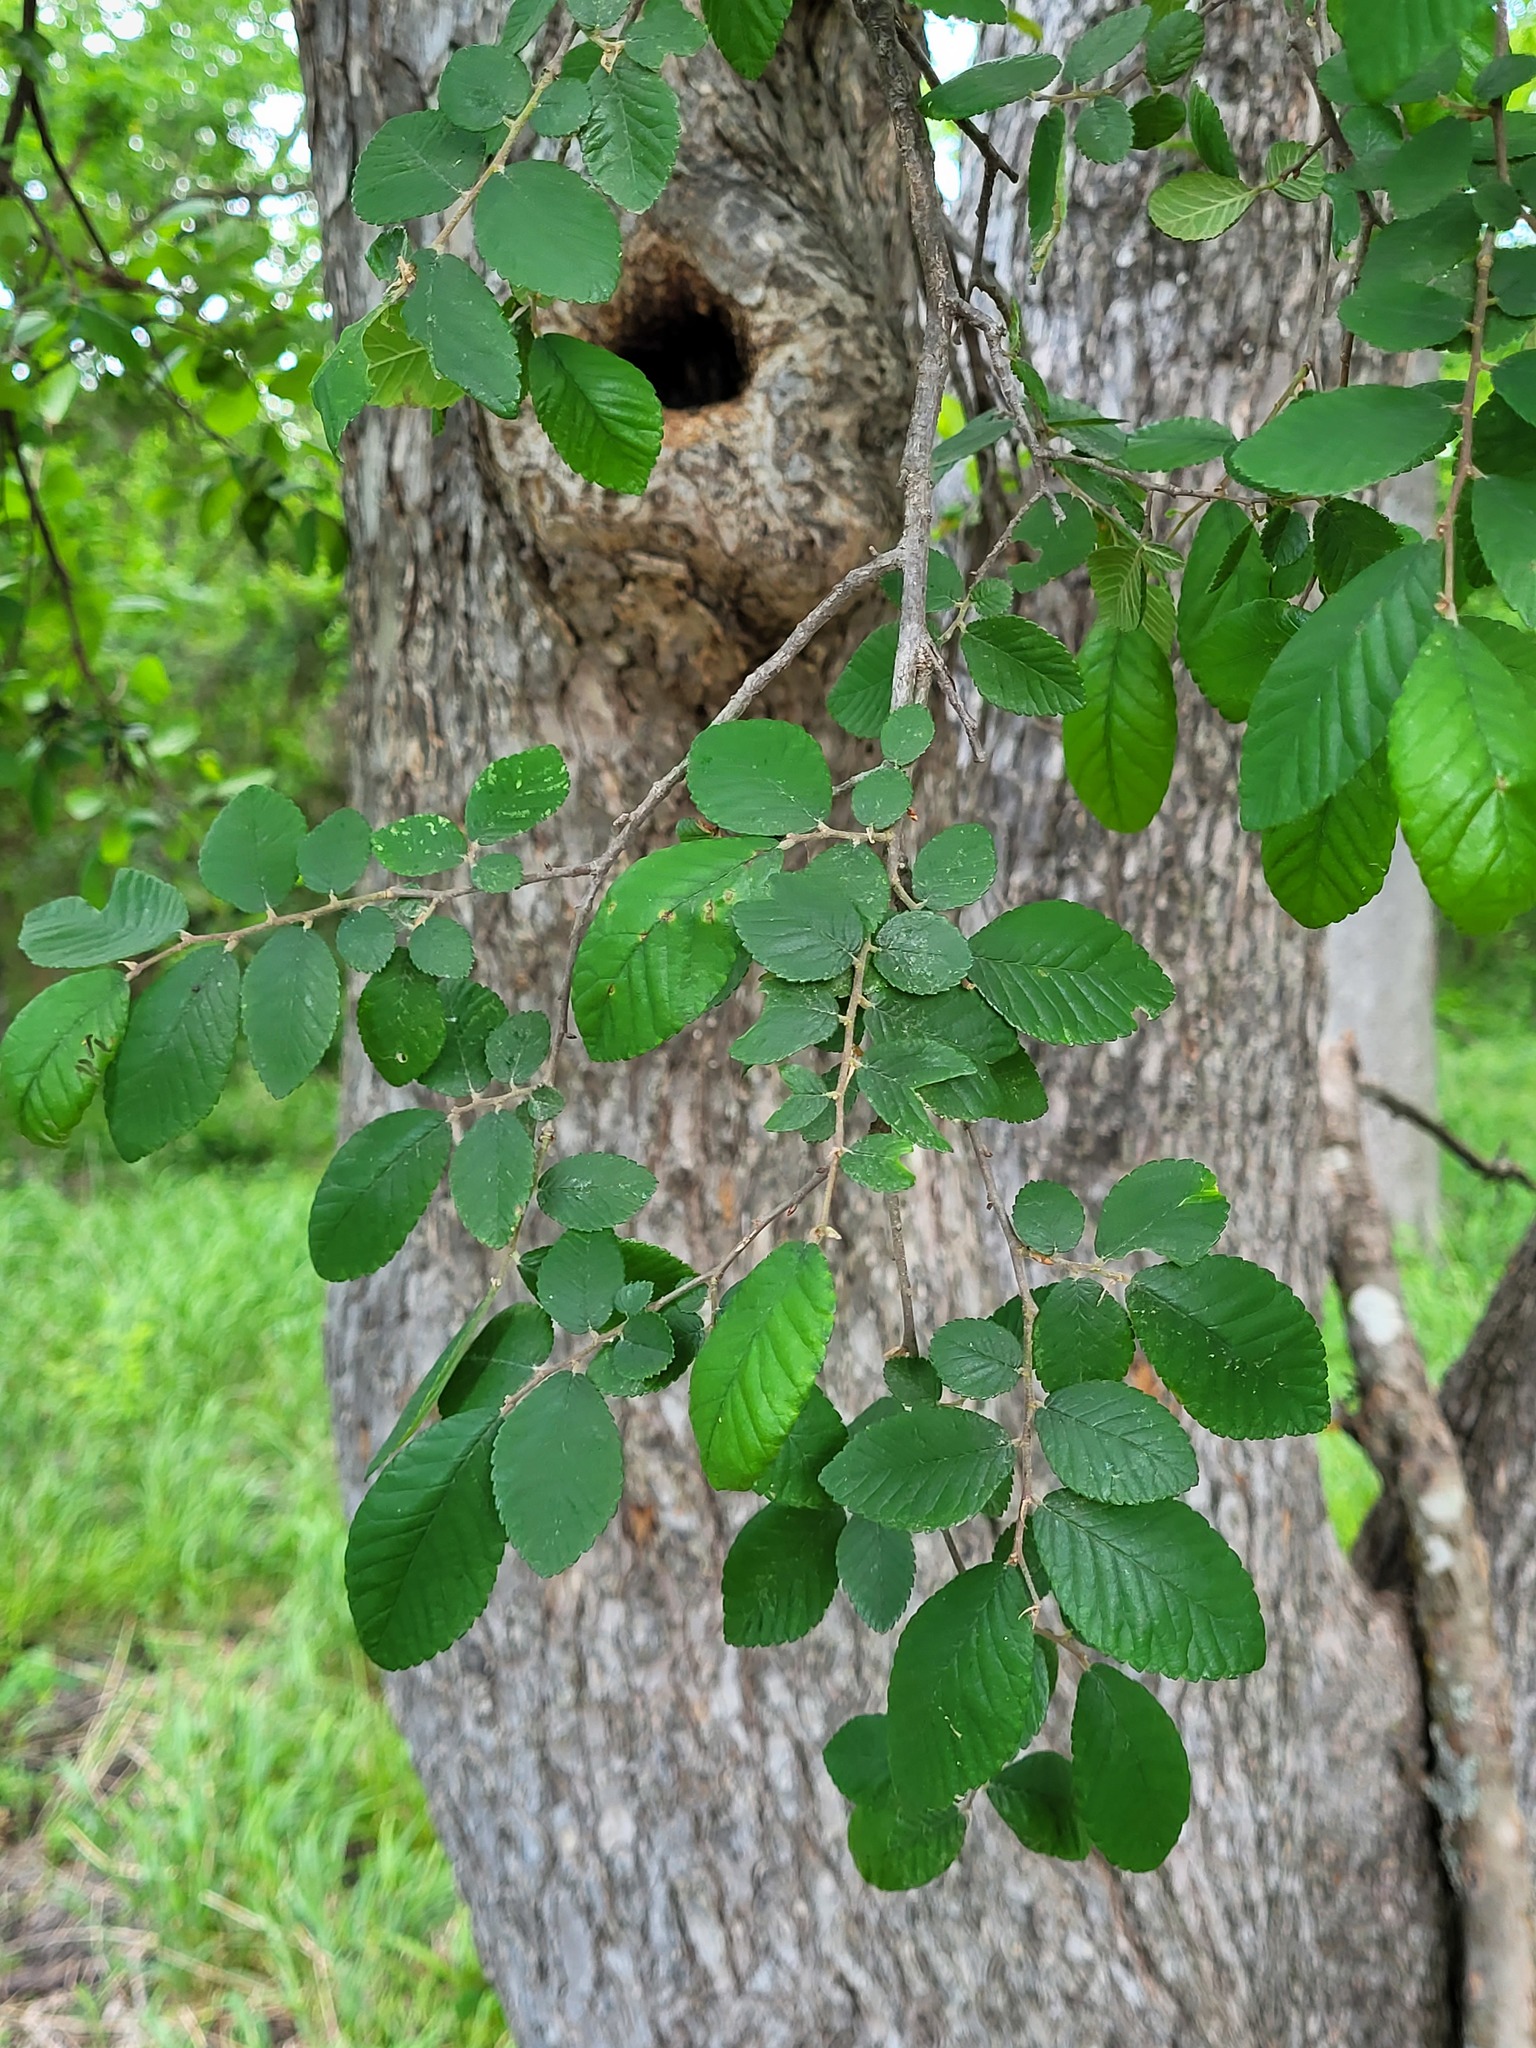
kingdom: Plantae
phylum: Tracheophyta
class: Magnoliopsida
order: Rosales
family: Ulmaceae
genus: Ulmus
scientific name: Ulmus crassifolia
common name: Basket elm
